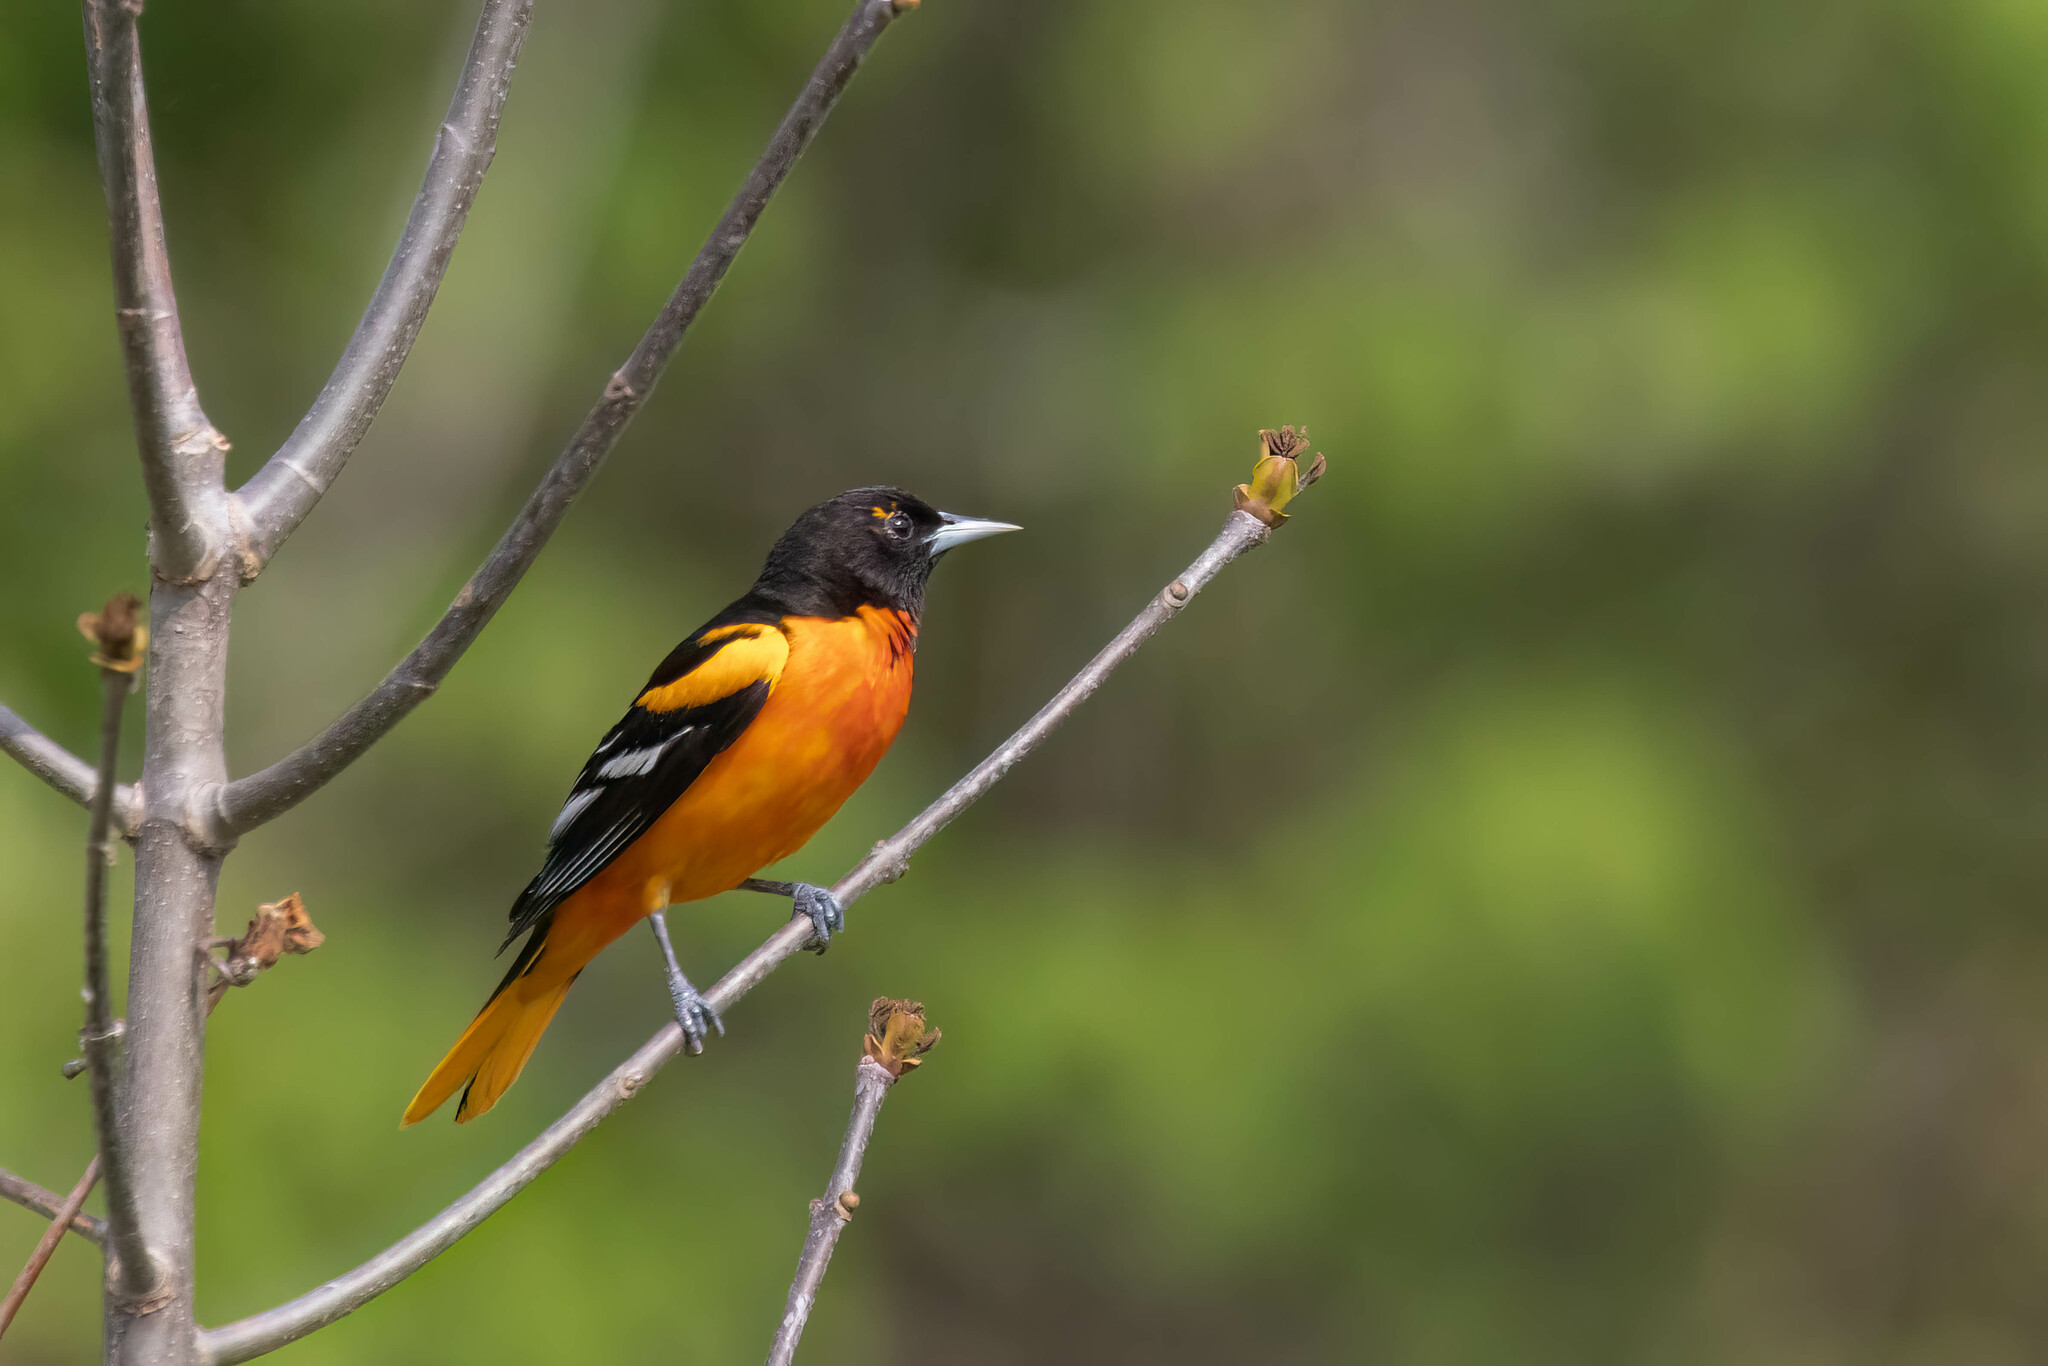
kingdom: Animalia
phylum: Chordata
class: Aves
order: Passeriformes
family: Icteridae
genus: Icterus
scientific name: Icterus galbula
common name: Baltimore oriole
